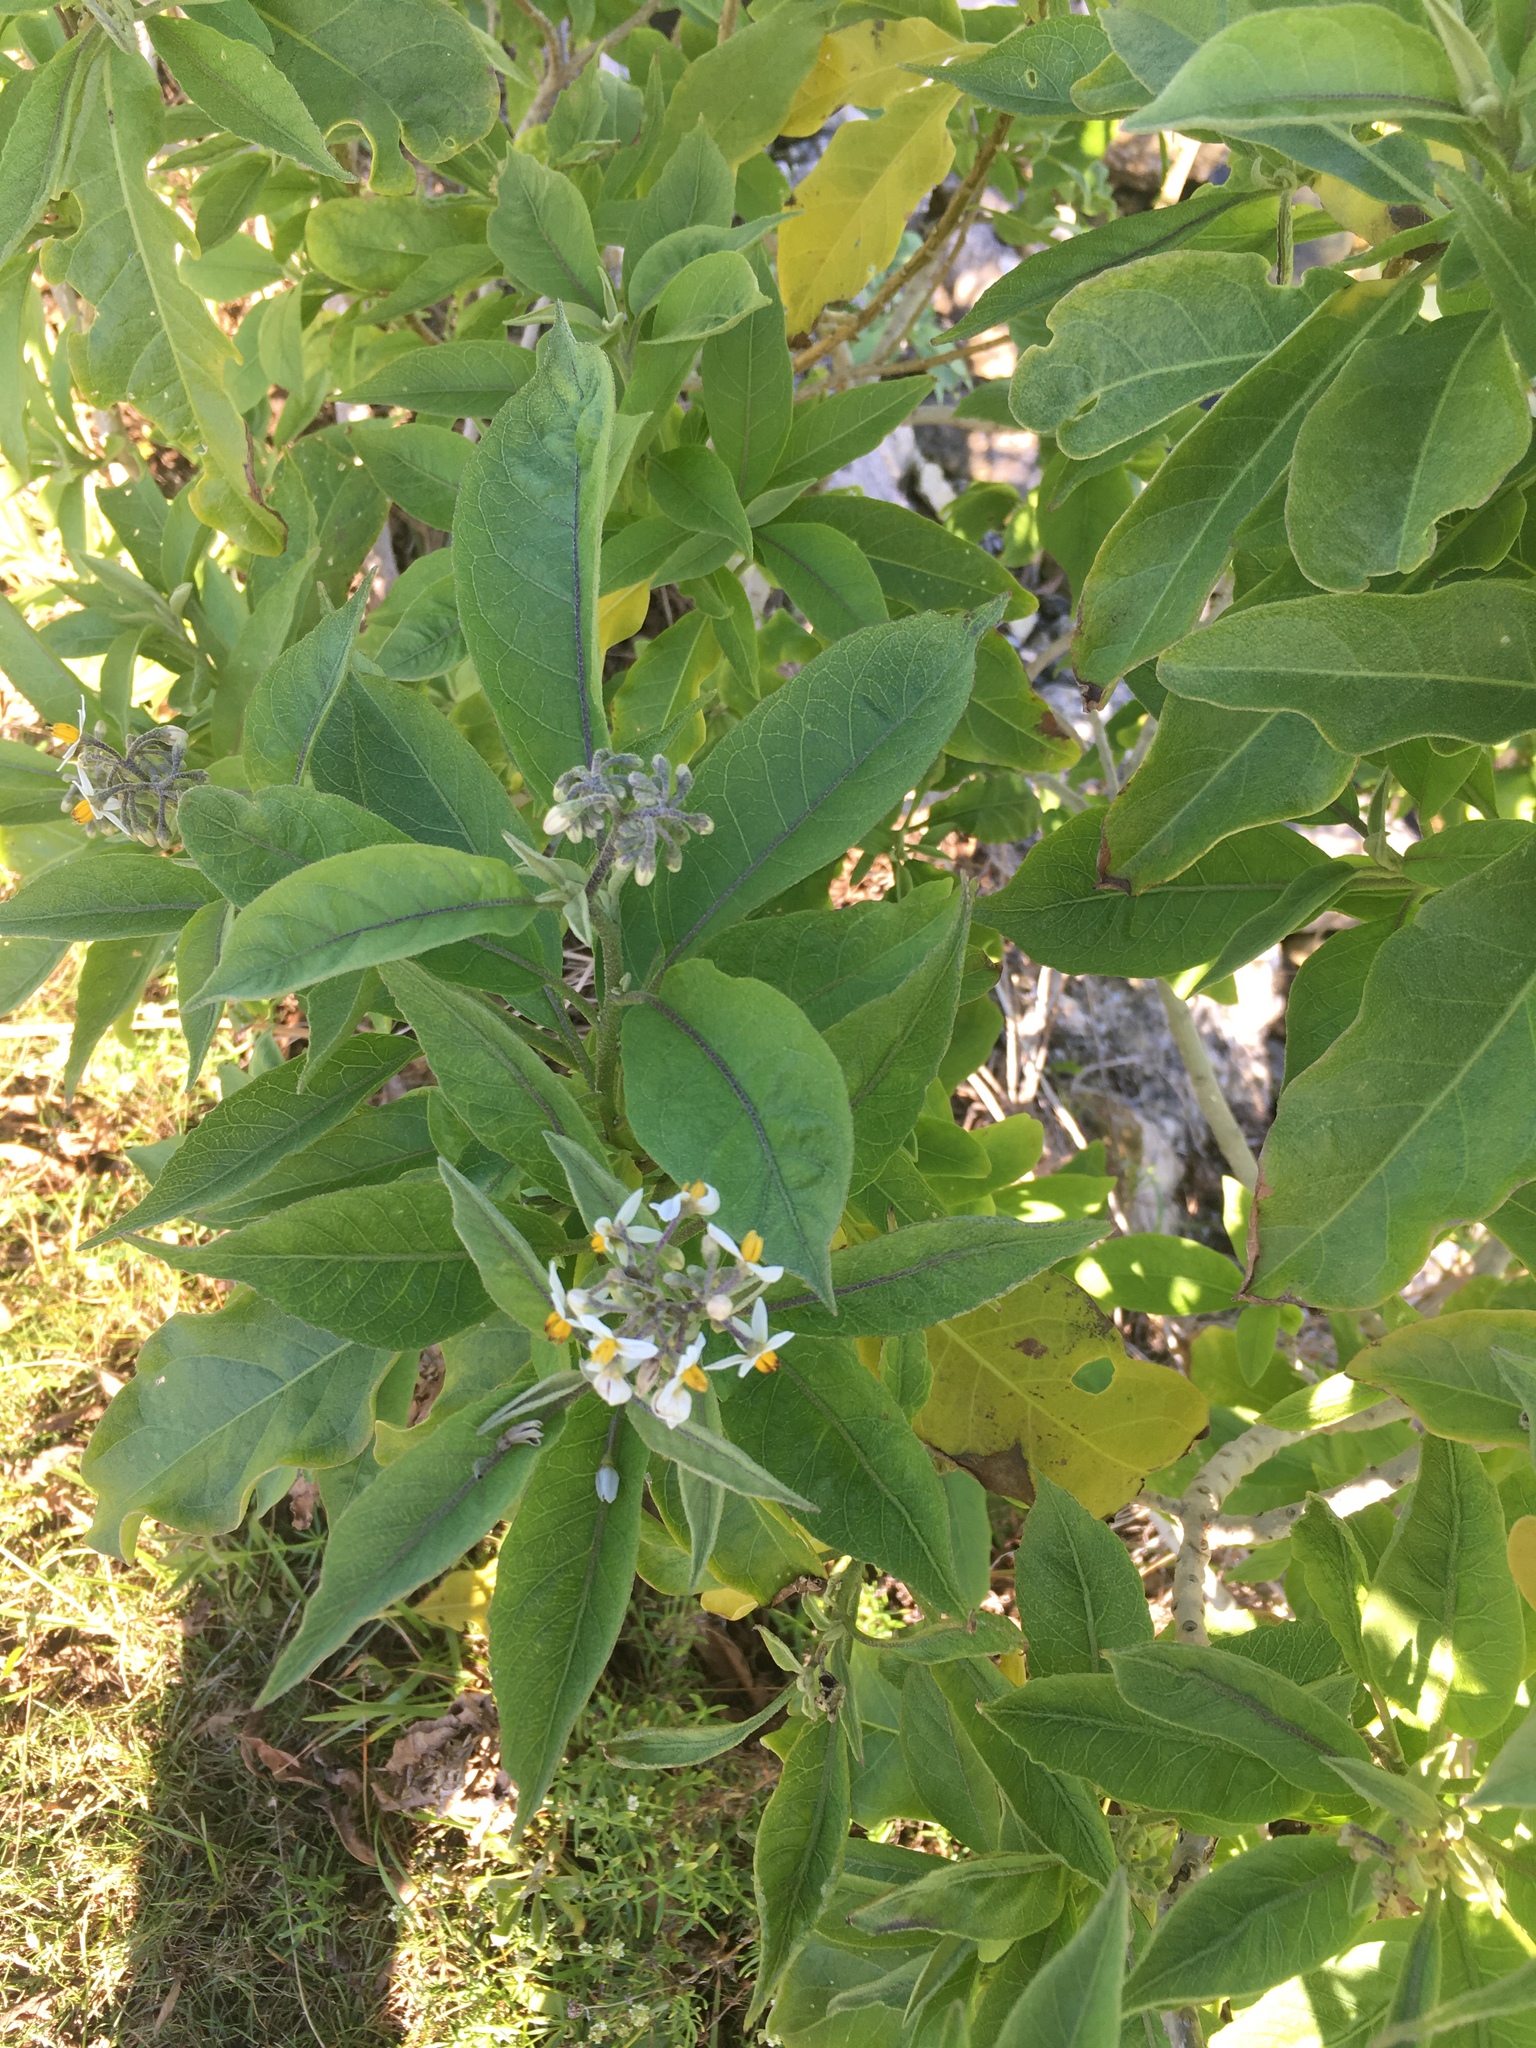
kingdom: Plantae
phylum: Tracheophyta
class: Magnoliopsida
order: Solanales
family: Solanaceae
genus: Solanum
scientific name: Solanum donianum
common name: Mullein nightshade
